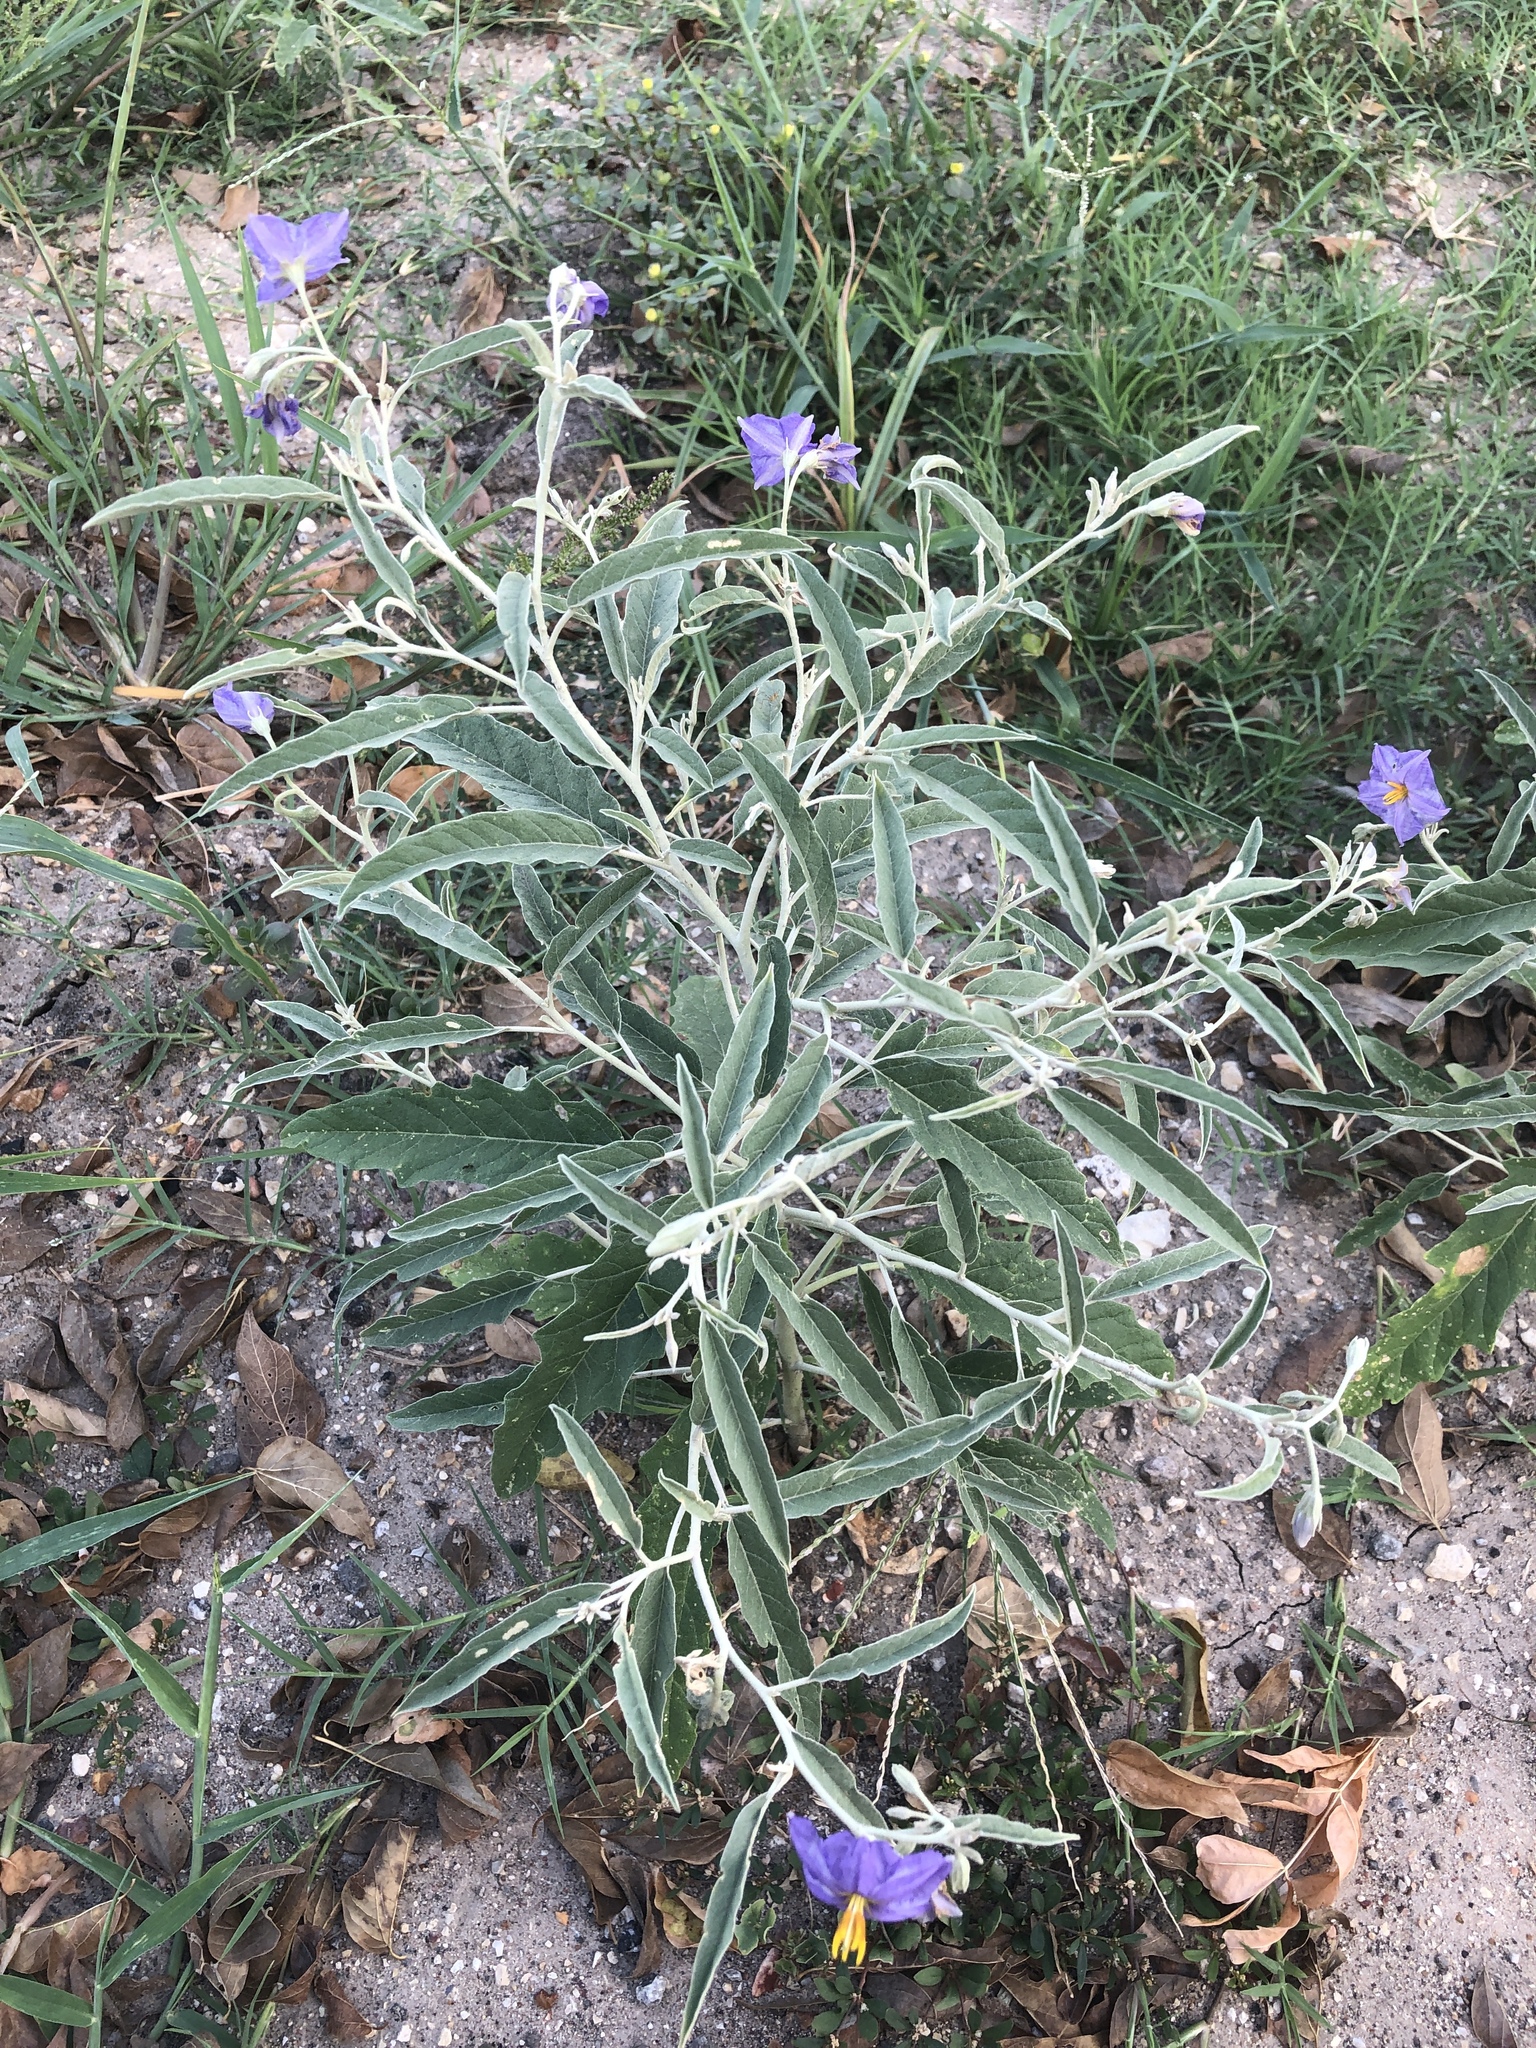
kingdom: Plantae
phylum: Tracheophyta
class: Magnoliopsida
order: Solanales
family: Solanaceae
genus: Solanum
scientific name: Solanum elaeagnifolium
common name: Silverleaf nightshade
